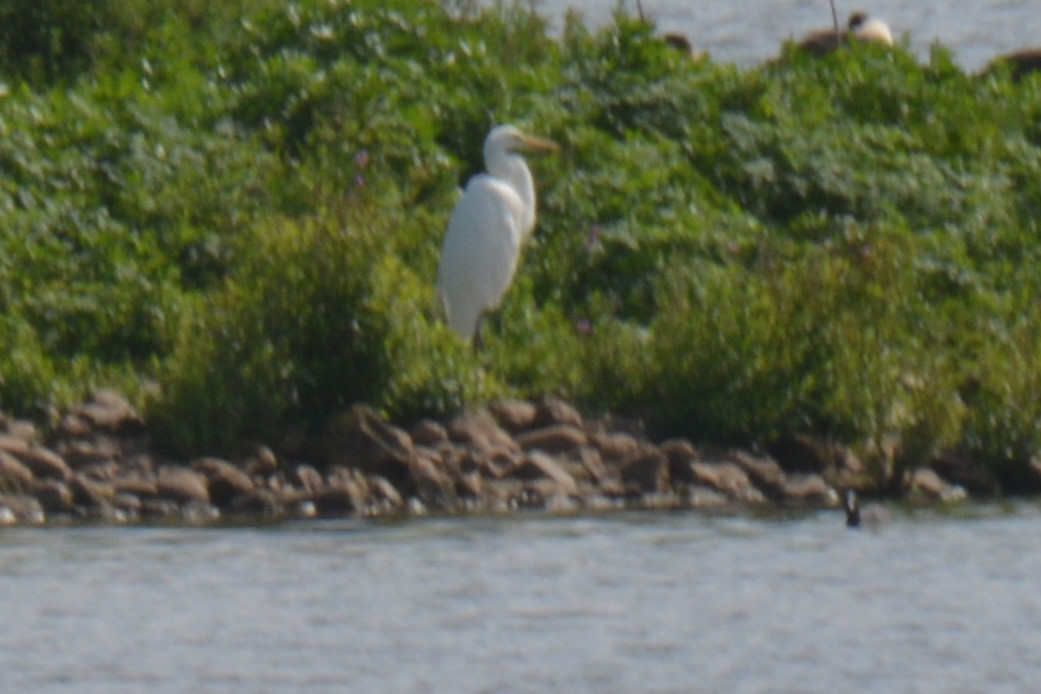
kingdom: Animalia
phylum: Chordata
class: Aves
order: Pelecaniformes
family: Ardeidae
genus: Ardea
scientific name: Ardea alba
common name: Great egret
